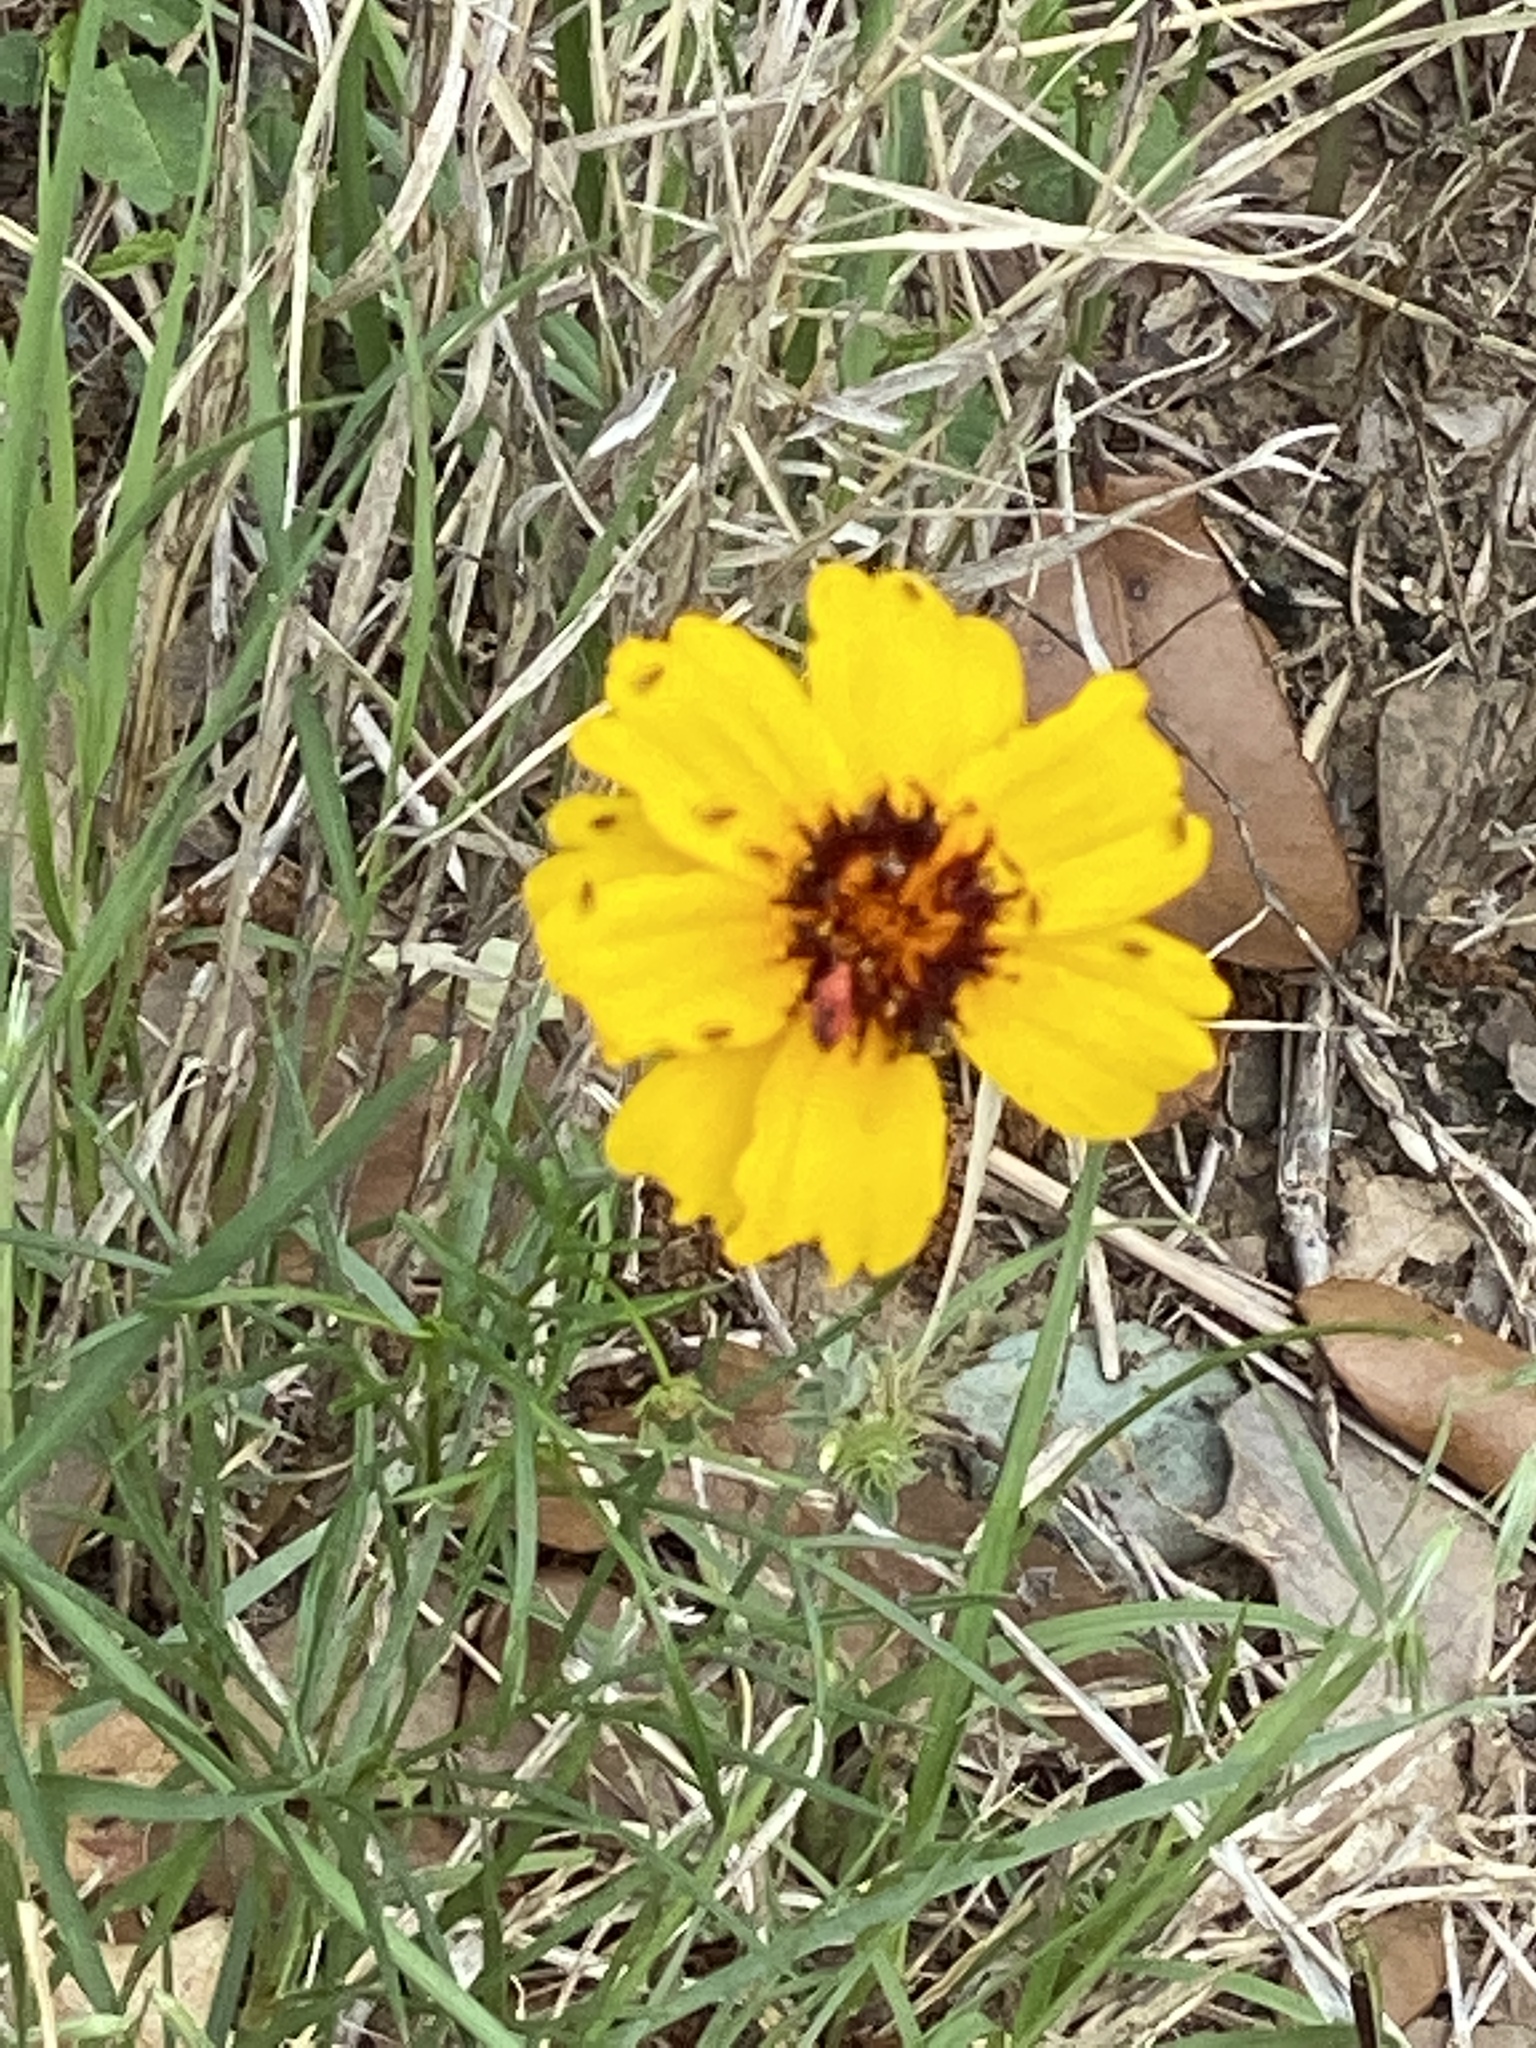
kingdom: Plantae
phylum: Tracheophyta
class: Magnoliopsida
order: Asterales
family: Asteraceae
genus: Thelesperma
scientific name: Thelesperma filifolium
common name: Stiff greenthread
